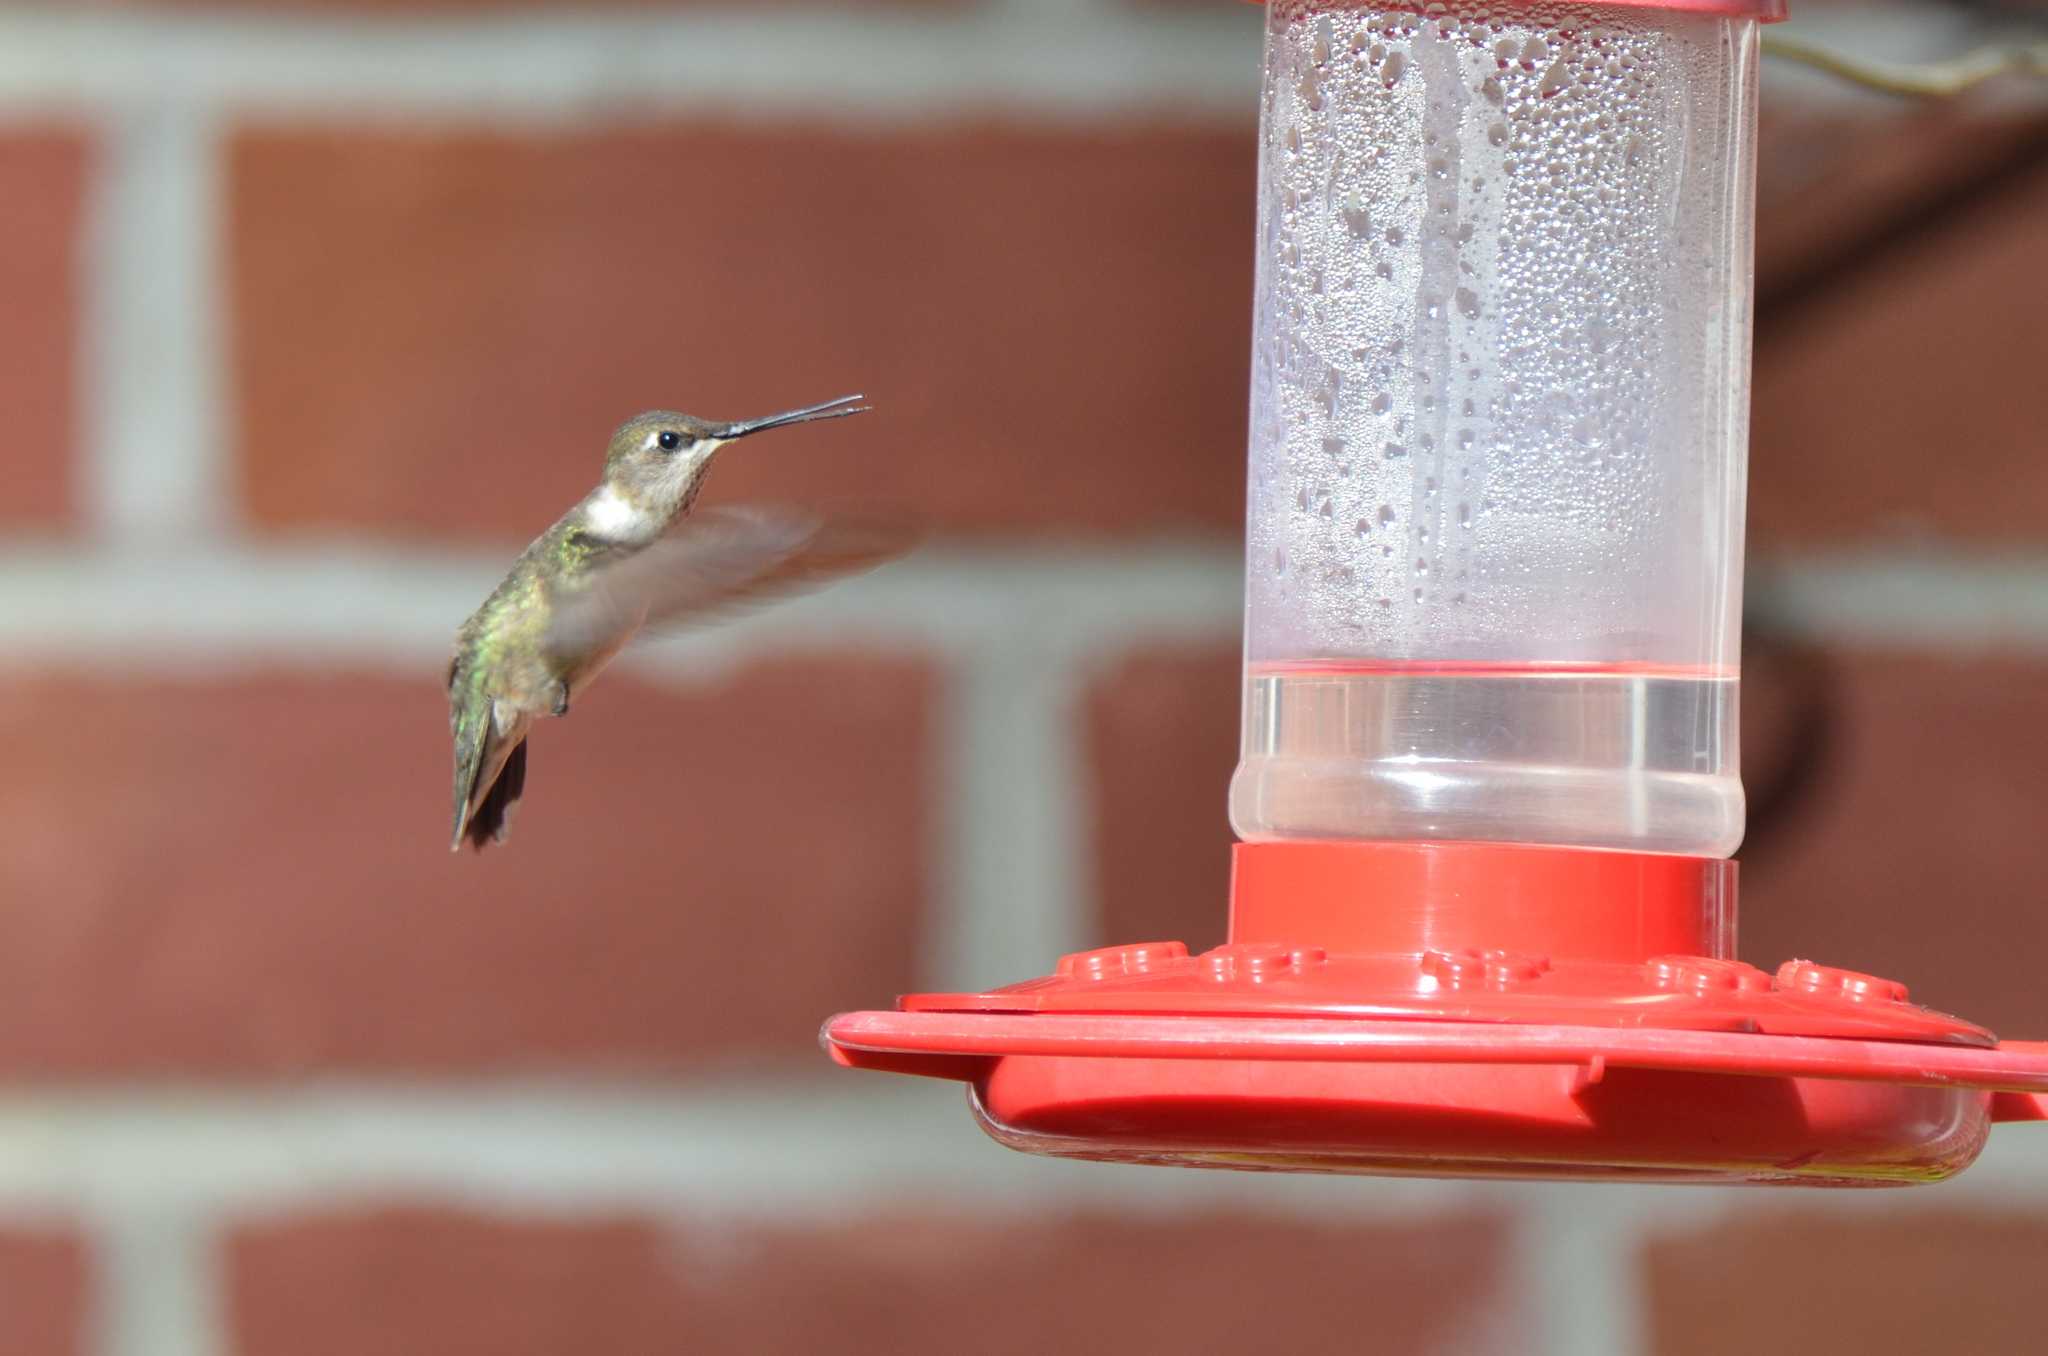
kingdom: Animalia
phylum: Chordata
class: Aves
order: Apodiformes
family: Trochilidae
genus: Archilochus
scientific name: Archilochus alexandri
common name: Black-chinned hummingbird
